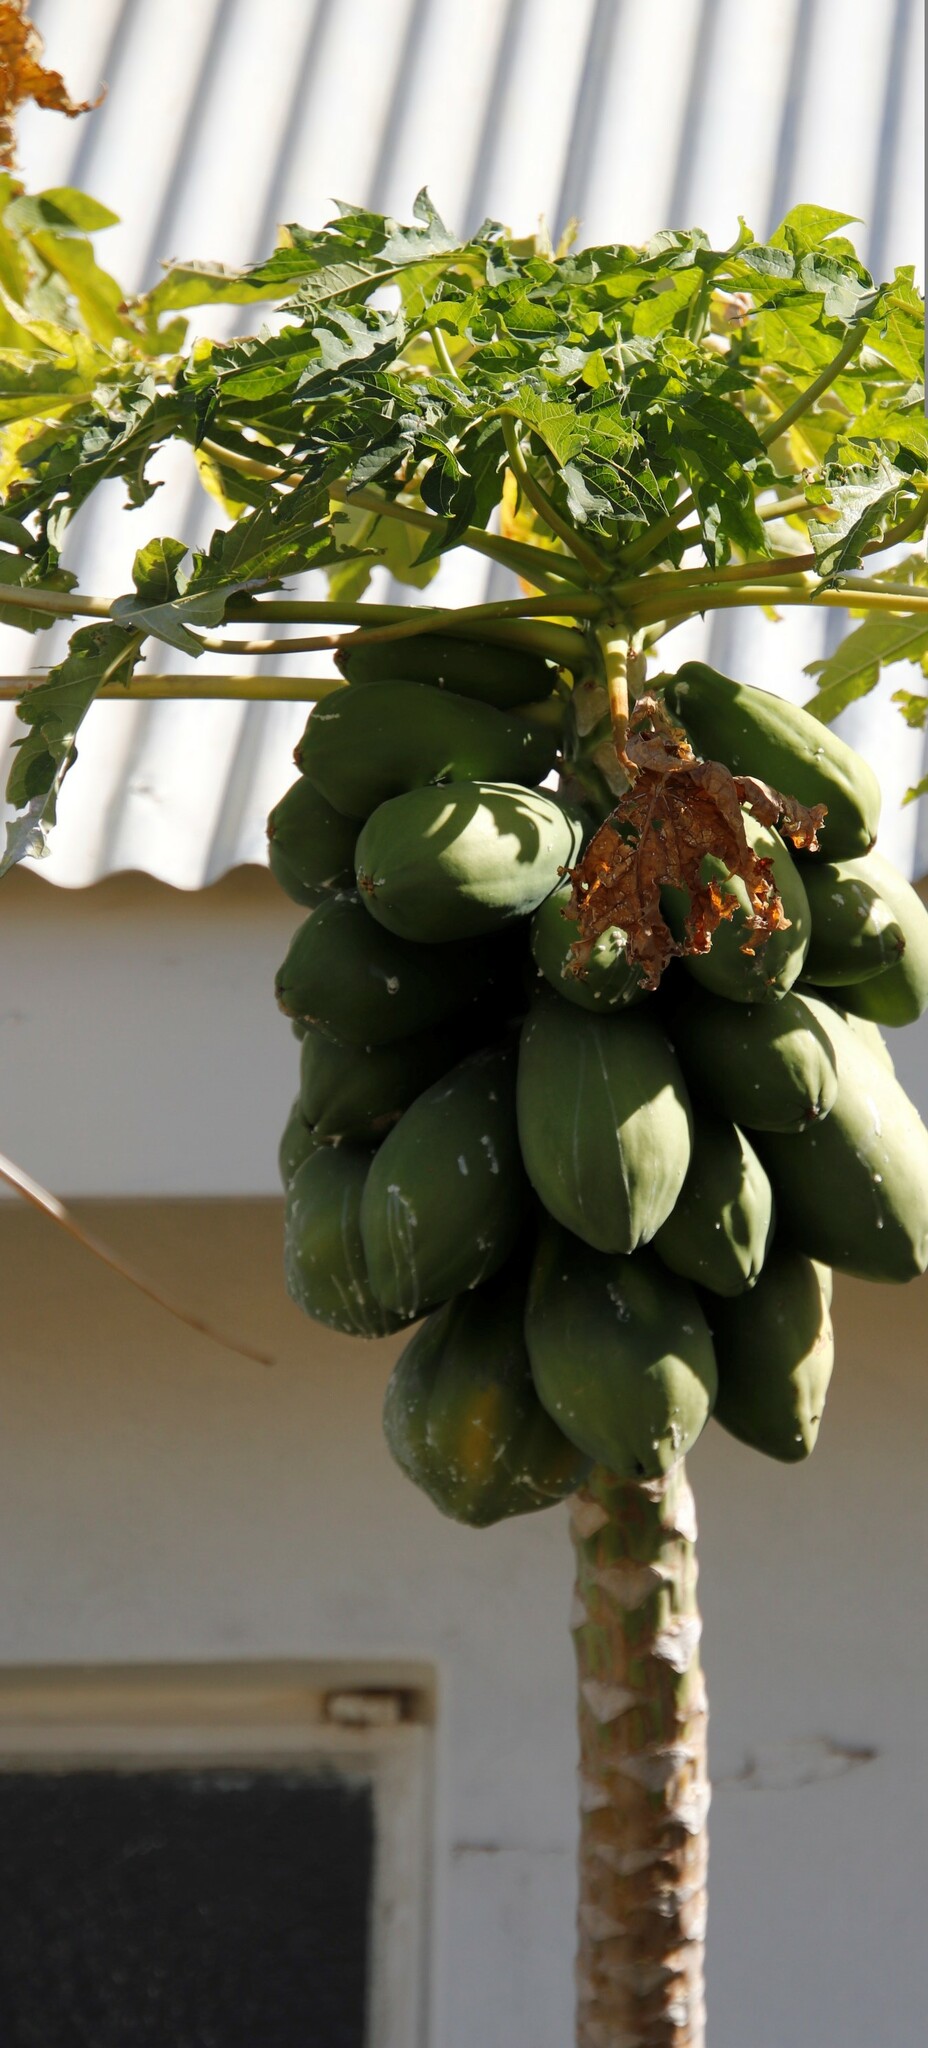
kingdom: Plantae
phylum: Tracheophyta
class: Magnoliopsida
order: Brassicales
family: Caricaceae
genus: Carica
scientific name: Carica papaya
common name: Papaya
